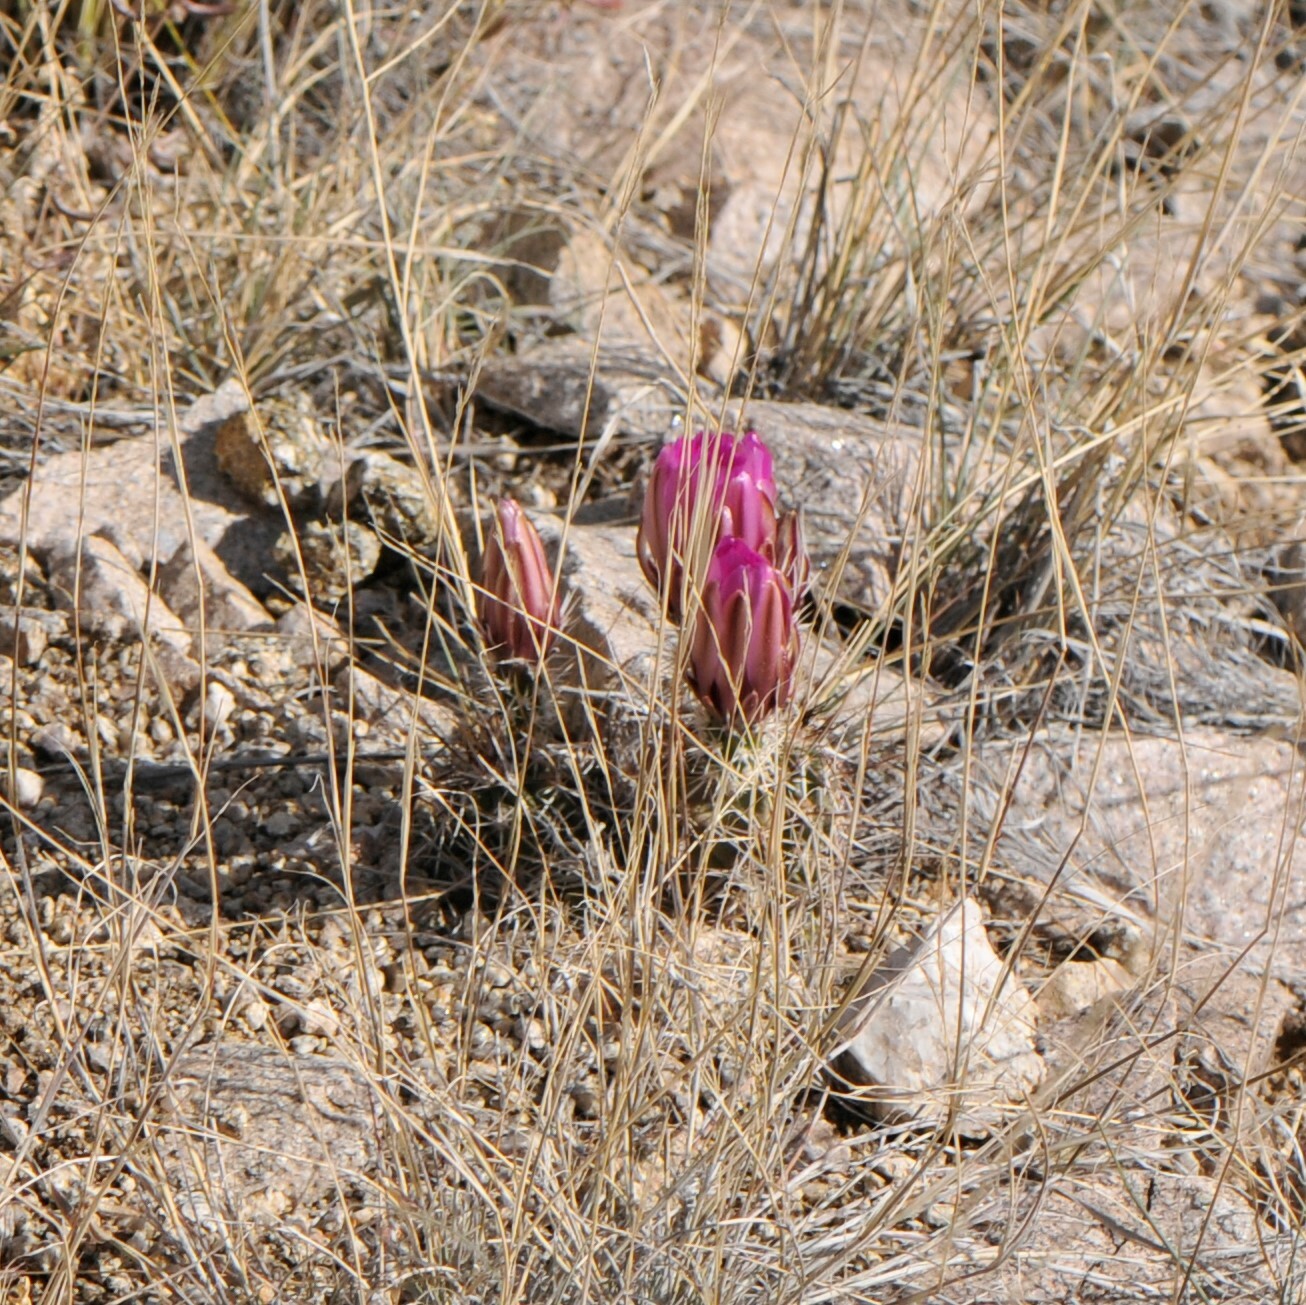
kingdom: Plantae
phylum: Tracheophyta
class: Magnoliopsida
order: Caryophyllales
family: Cactaceae
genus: Echinocereus
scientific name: Echinocereus fendleri
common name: Fendler's hedgehog cactus
